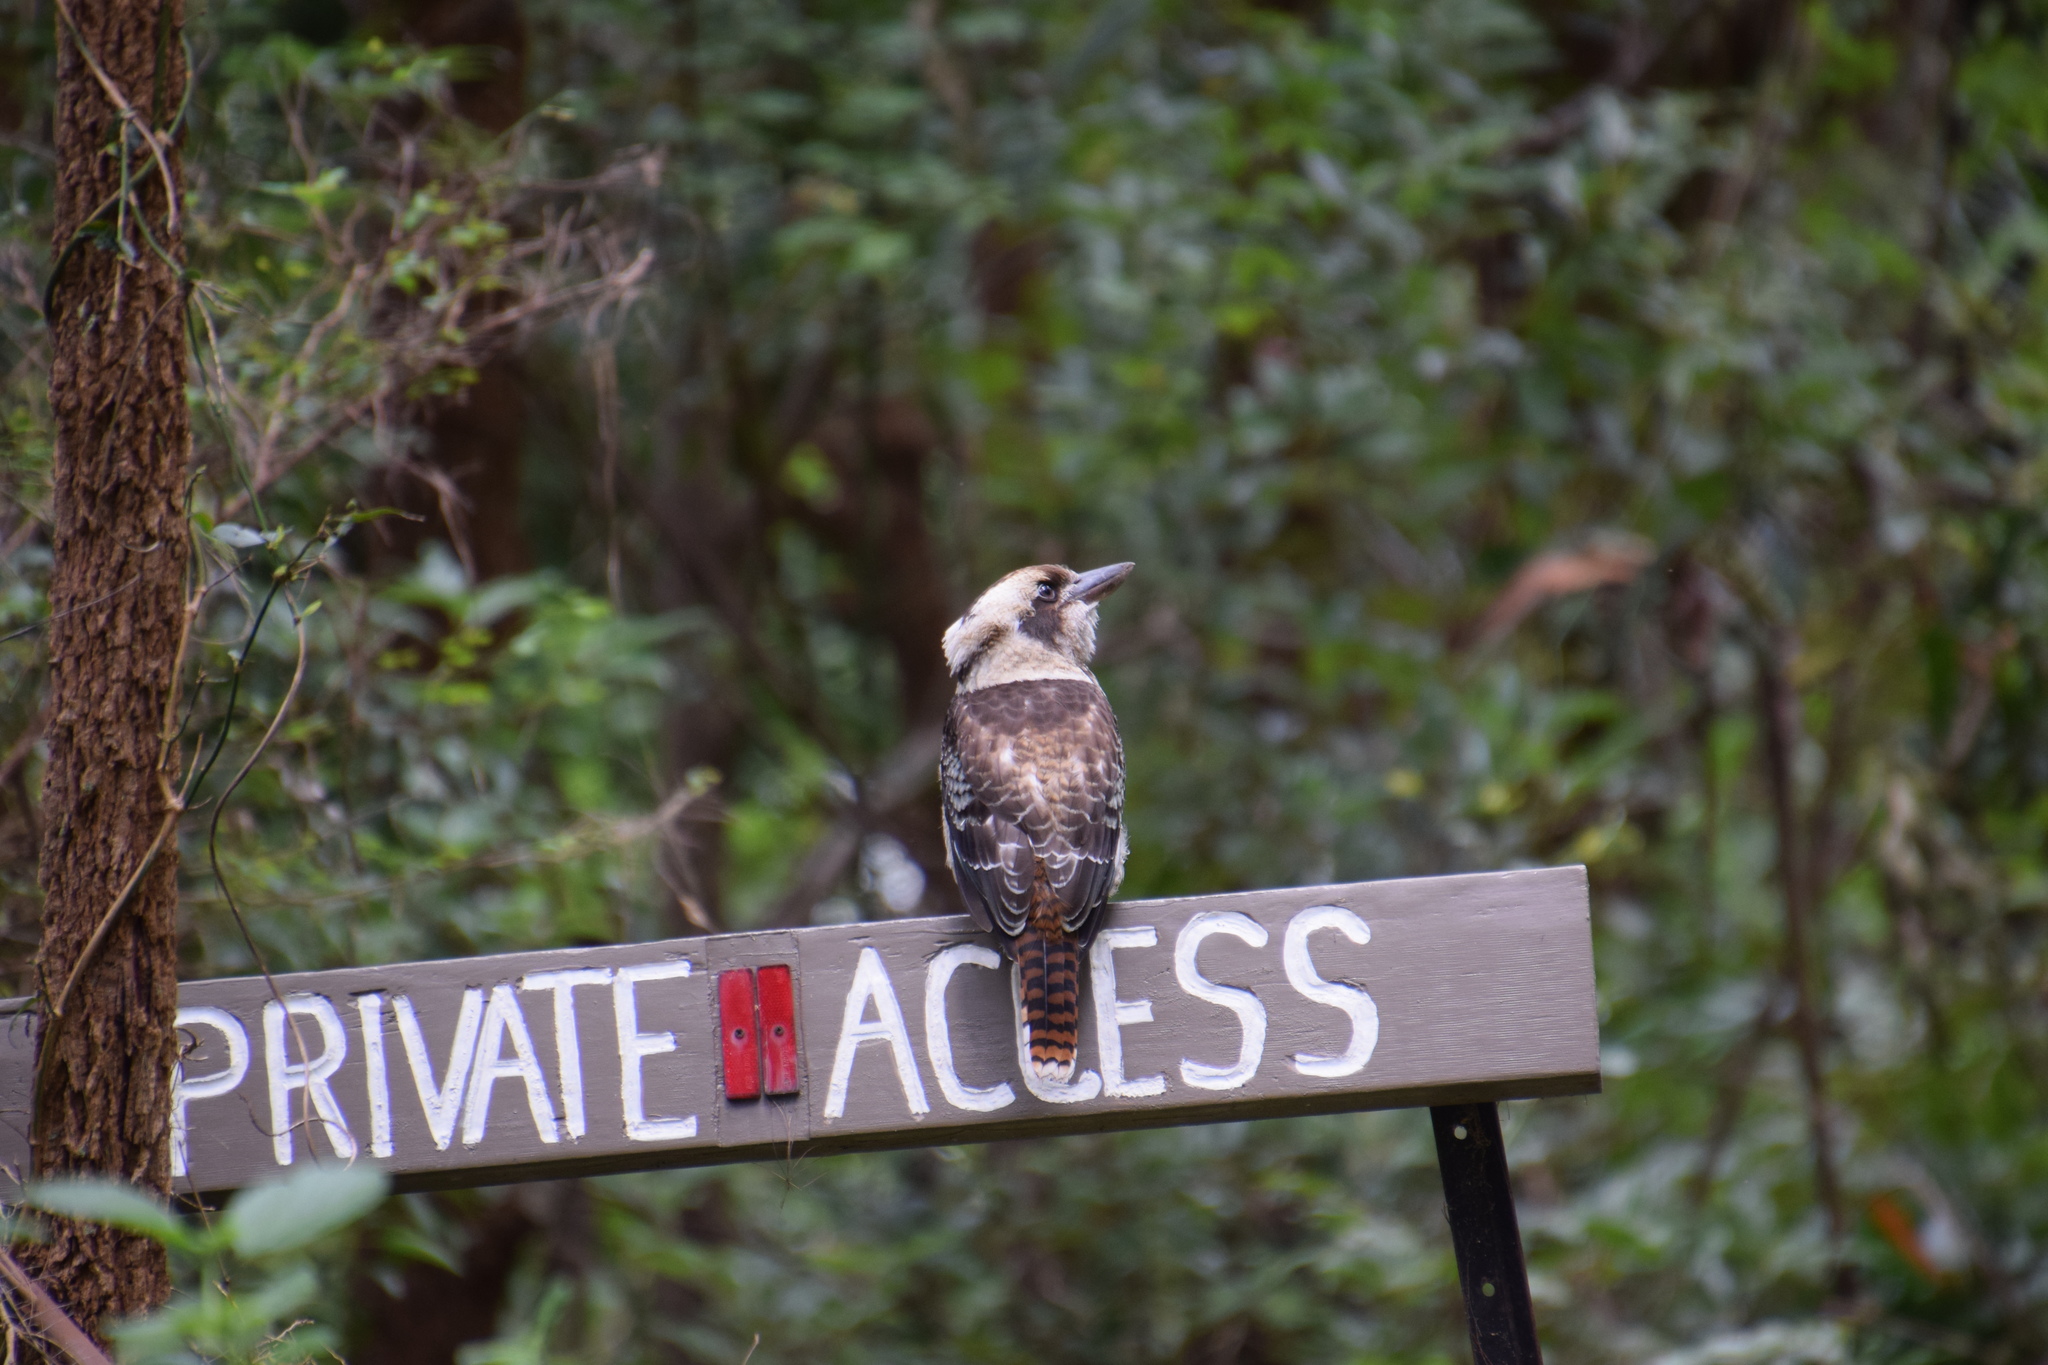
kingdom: Animalia
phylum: Chordata
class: Aves
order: Coraciiformes
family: Alcedinidae
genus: Dacelo
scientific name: Dacelo novaeguineae
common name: Laughing kookaburra
